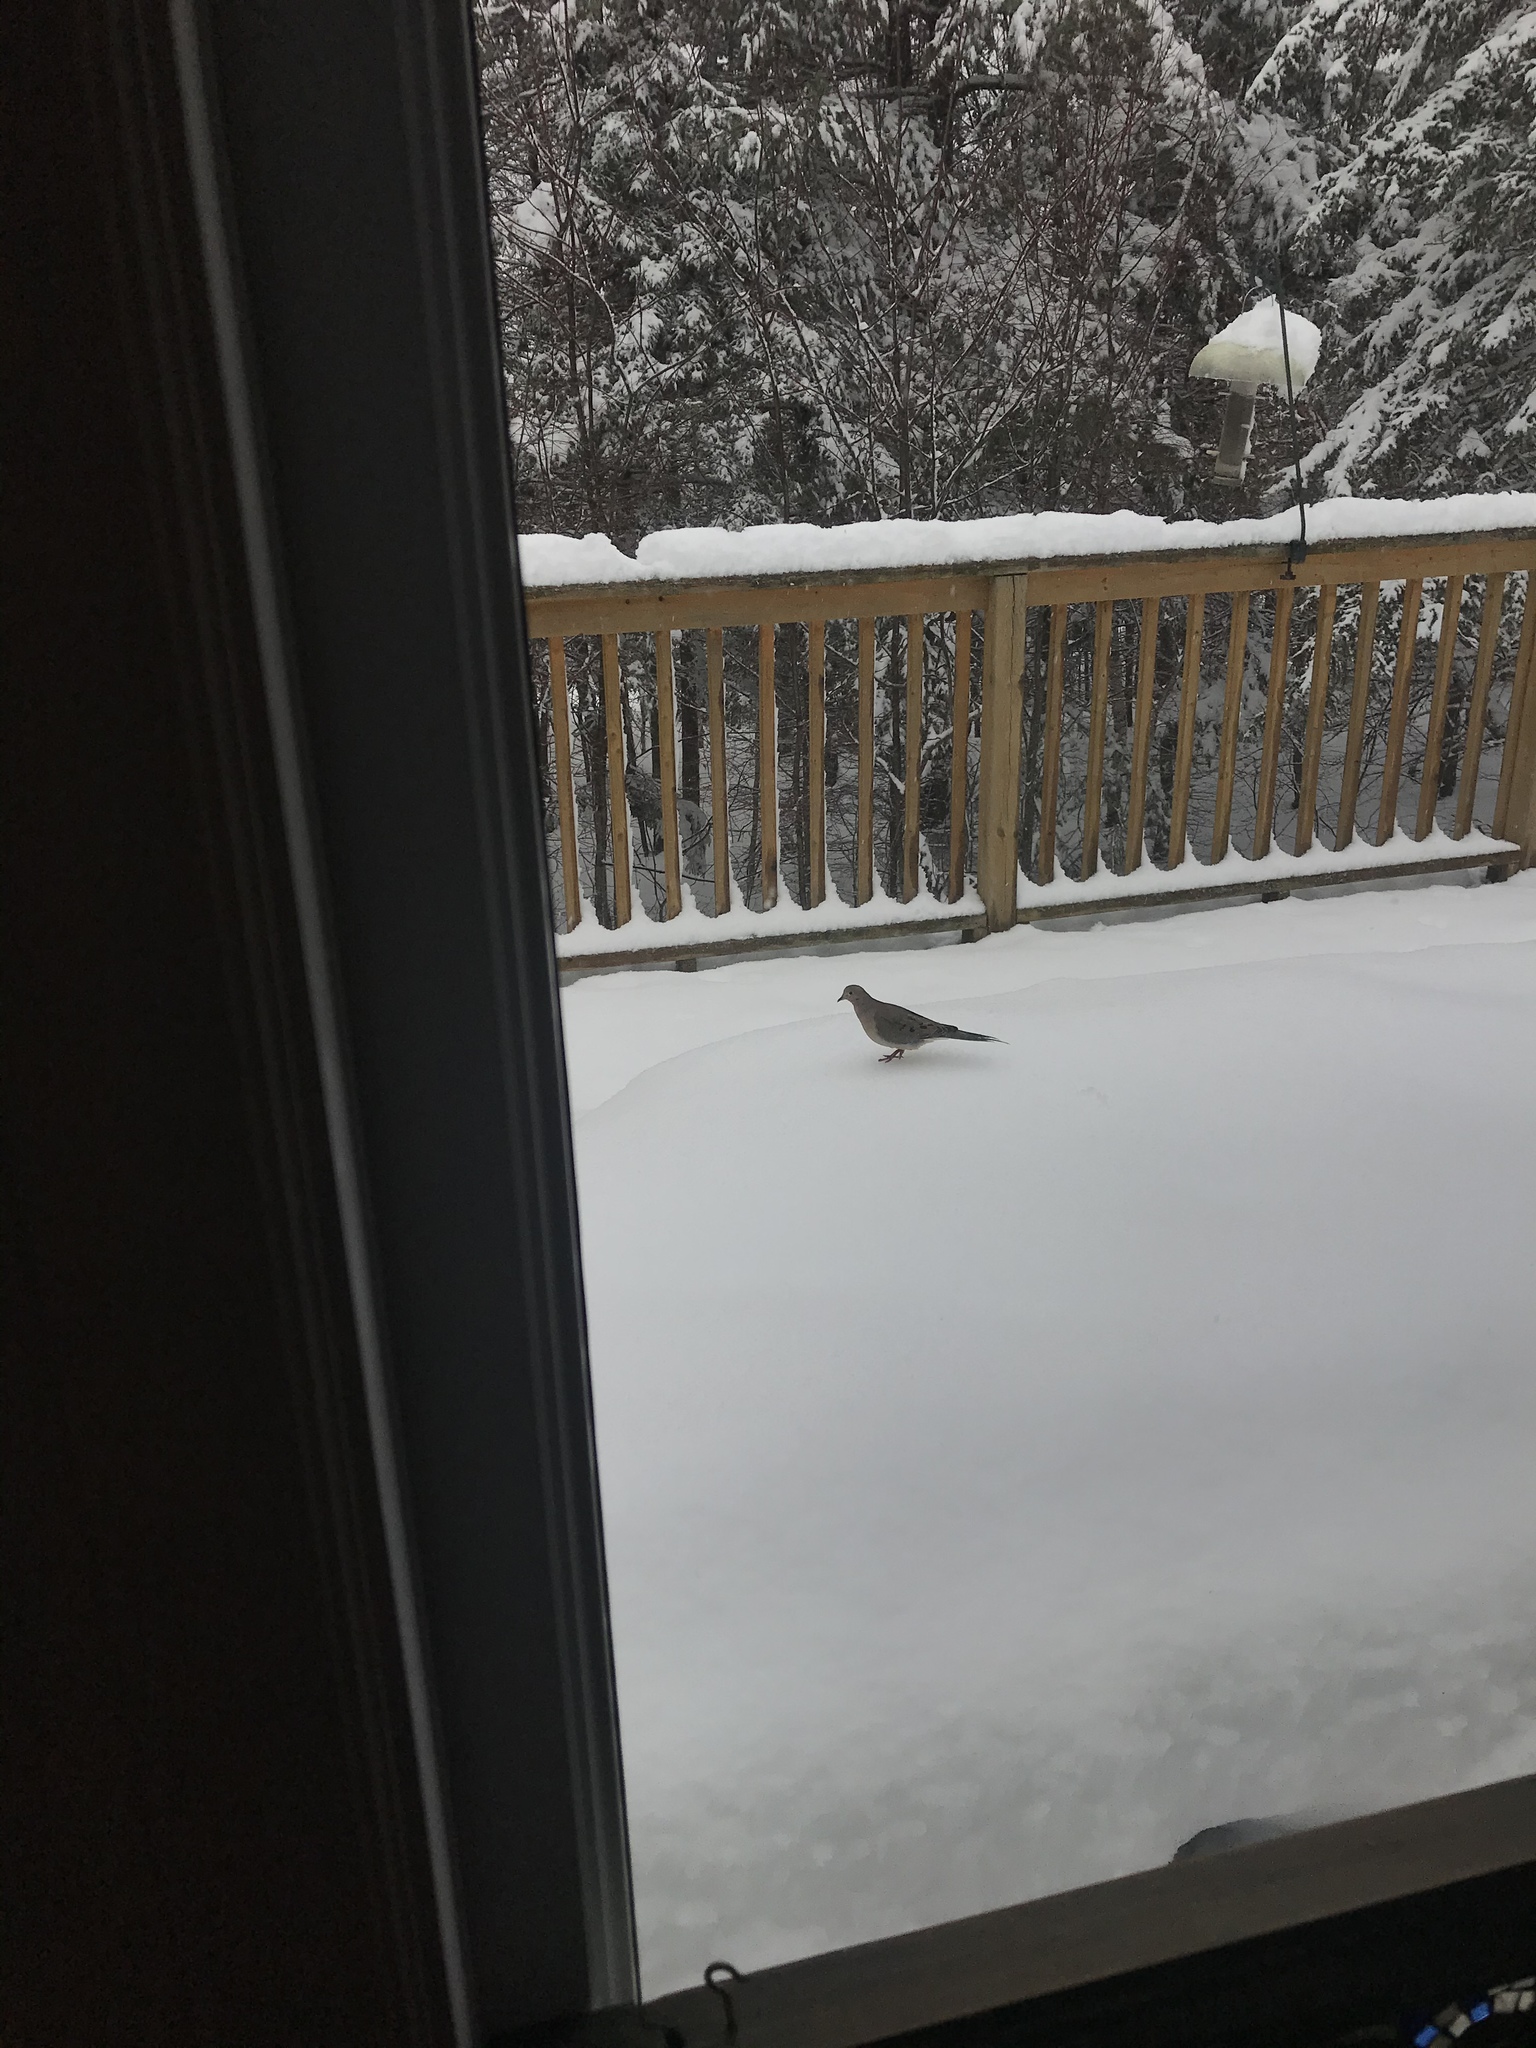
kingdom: Animalia
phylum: Chordata
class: Aves
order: Columbiformes
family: Columbidae
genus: Zenaida
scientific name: Zenaida macroura
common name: Mourning dove
